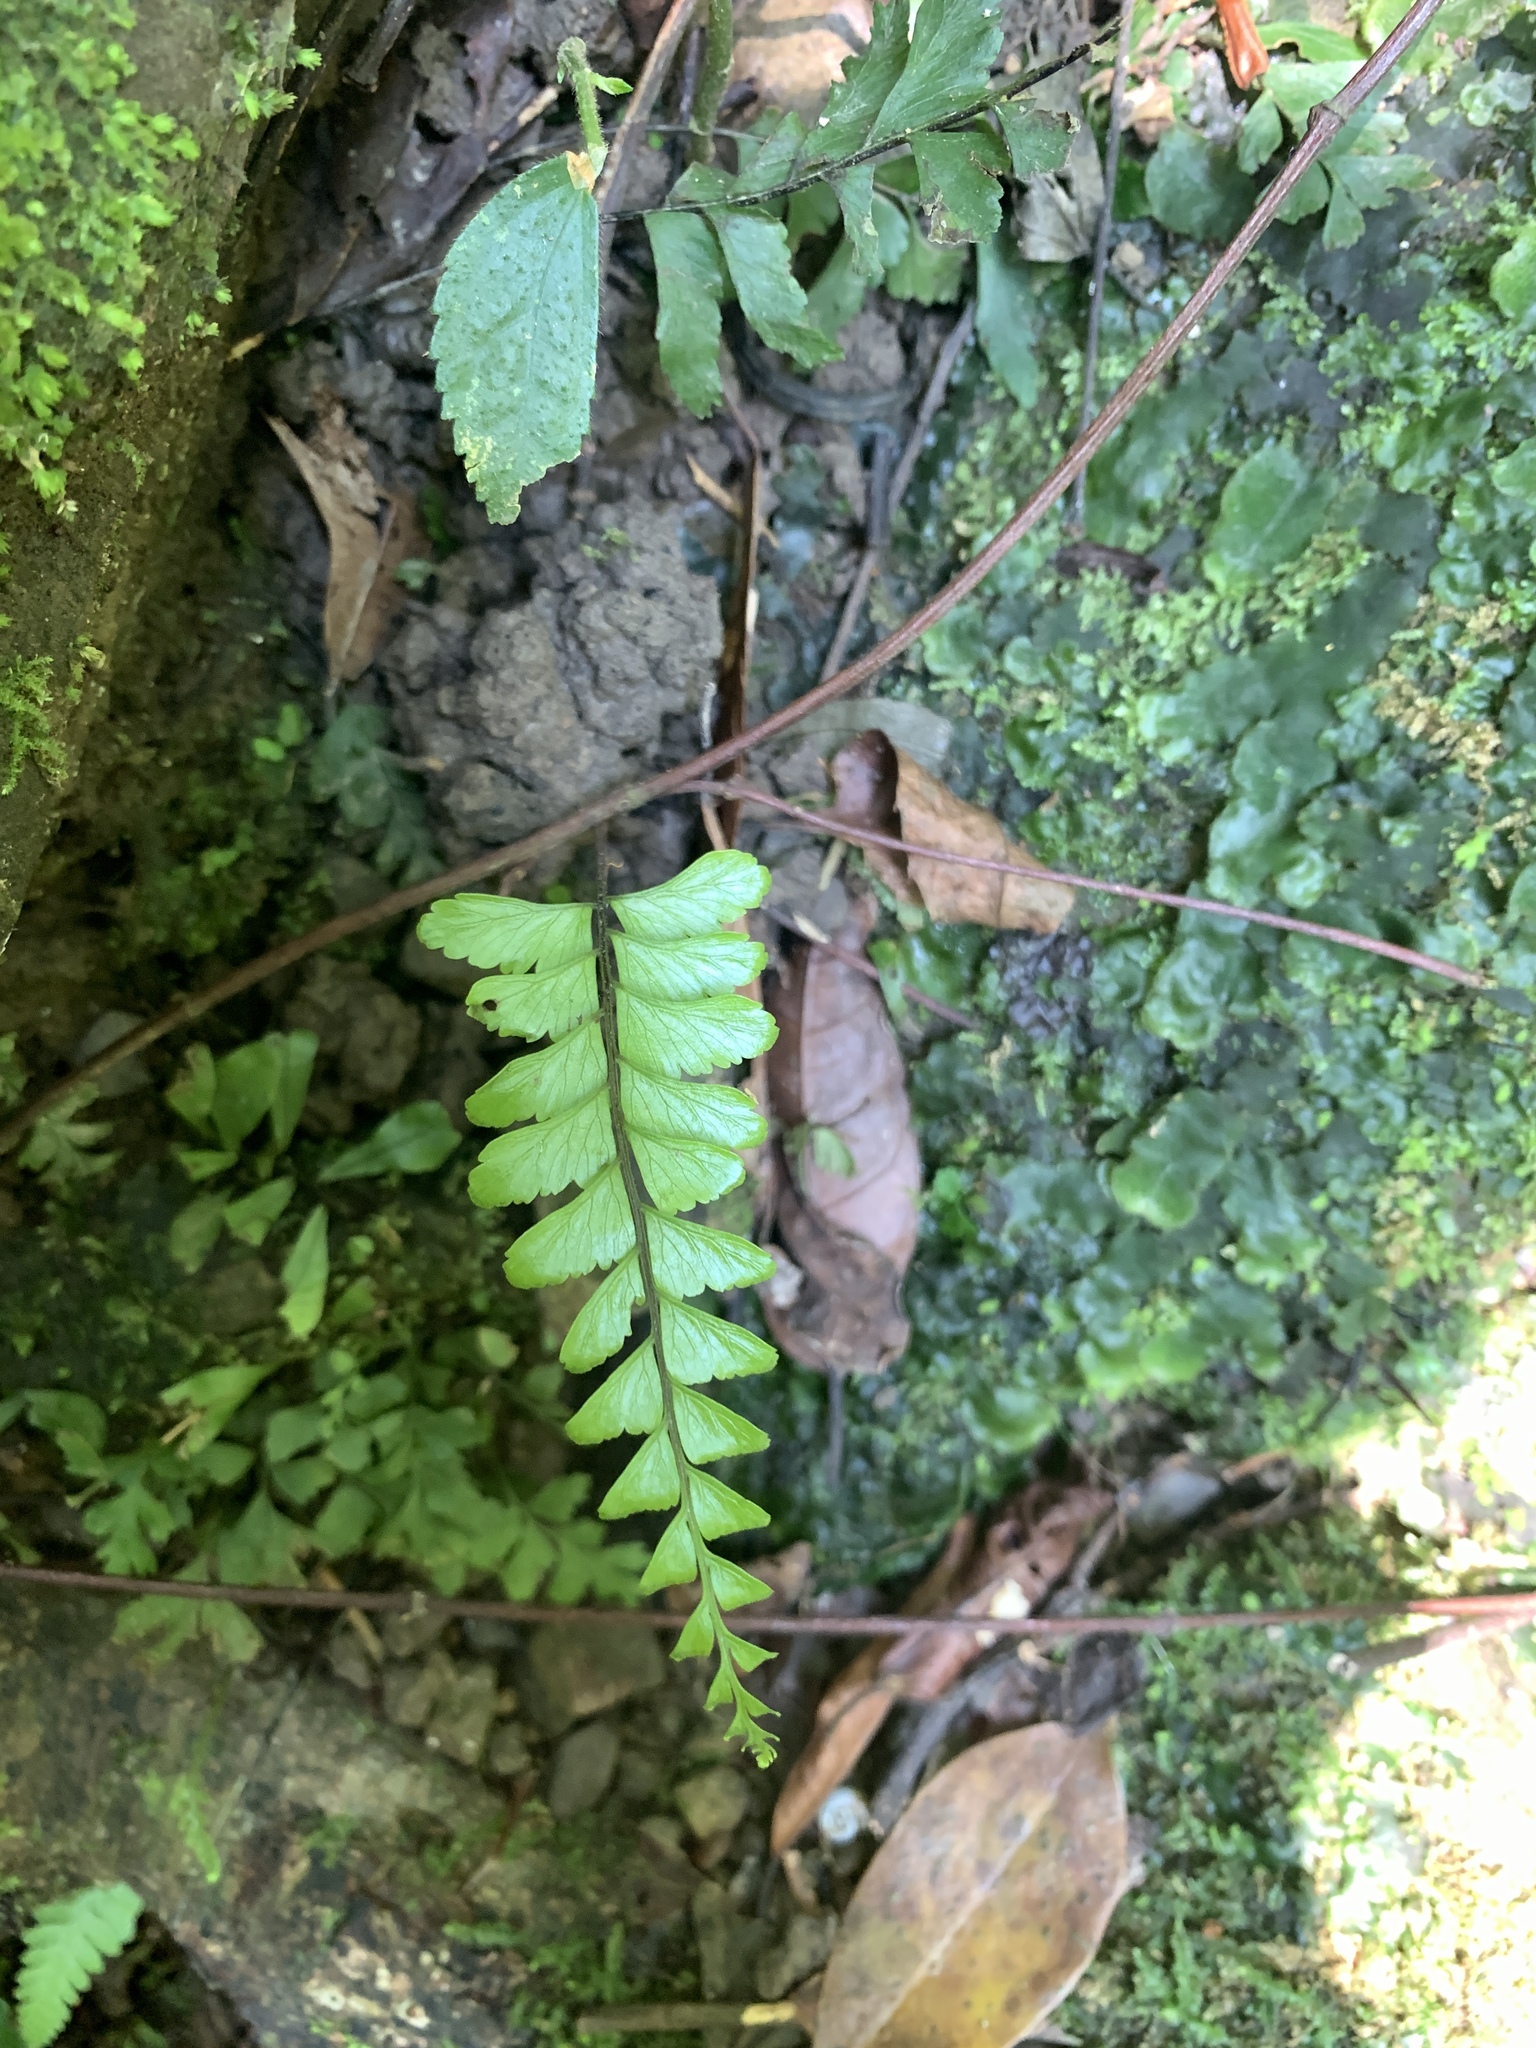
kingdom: Plantae
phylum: Tracheophyta
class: Polypodiopsida
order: Polypodiales
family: Aspleniaceae
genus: Hymenasplenium
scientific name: Hymenasplenium unilaterale
